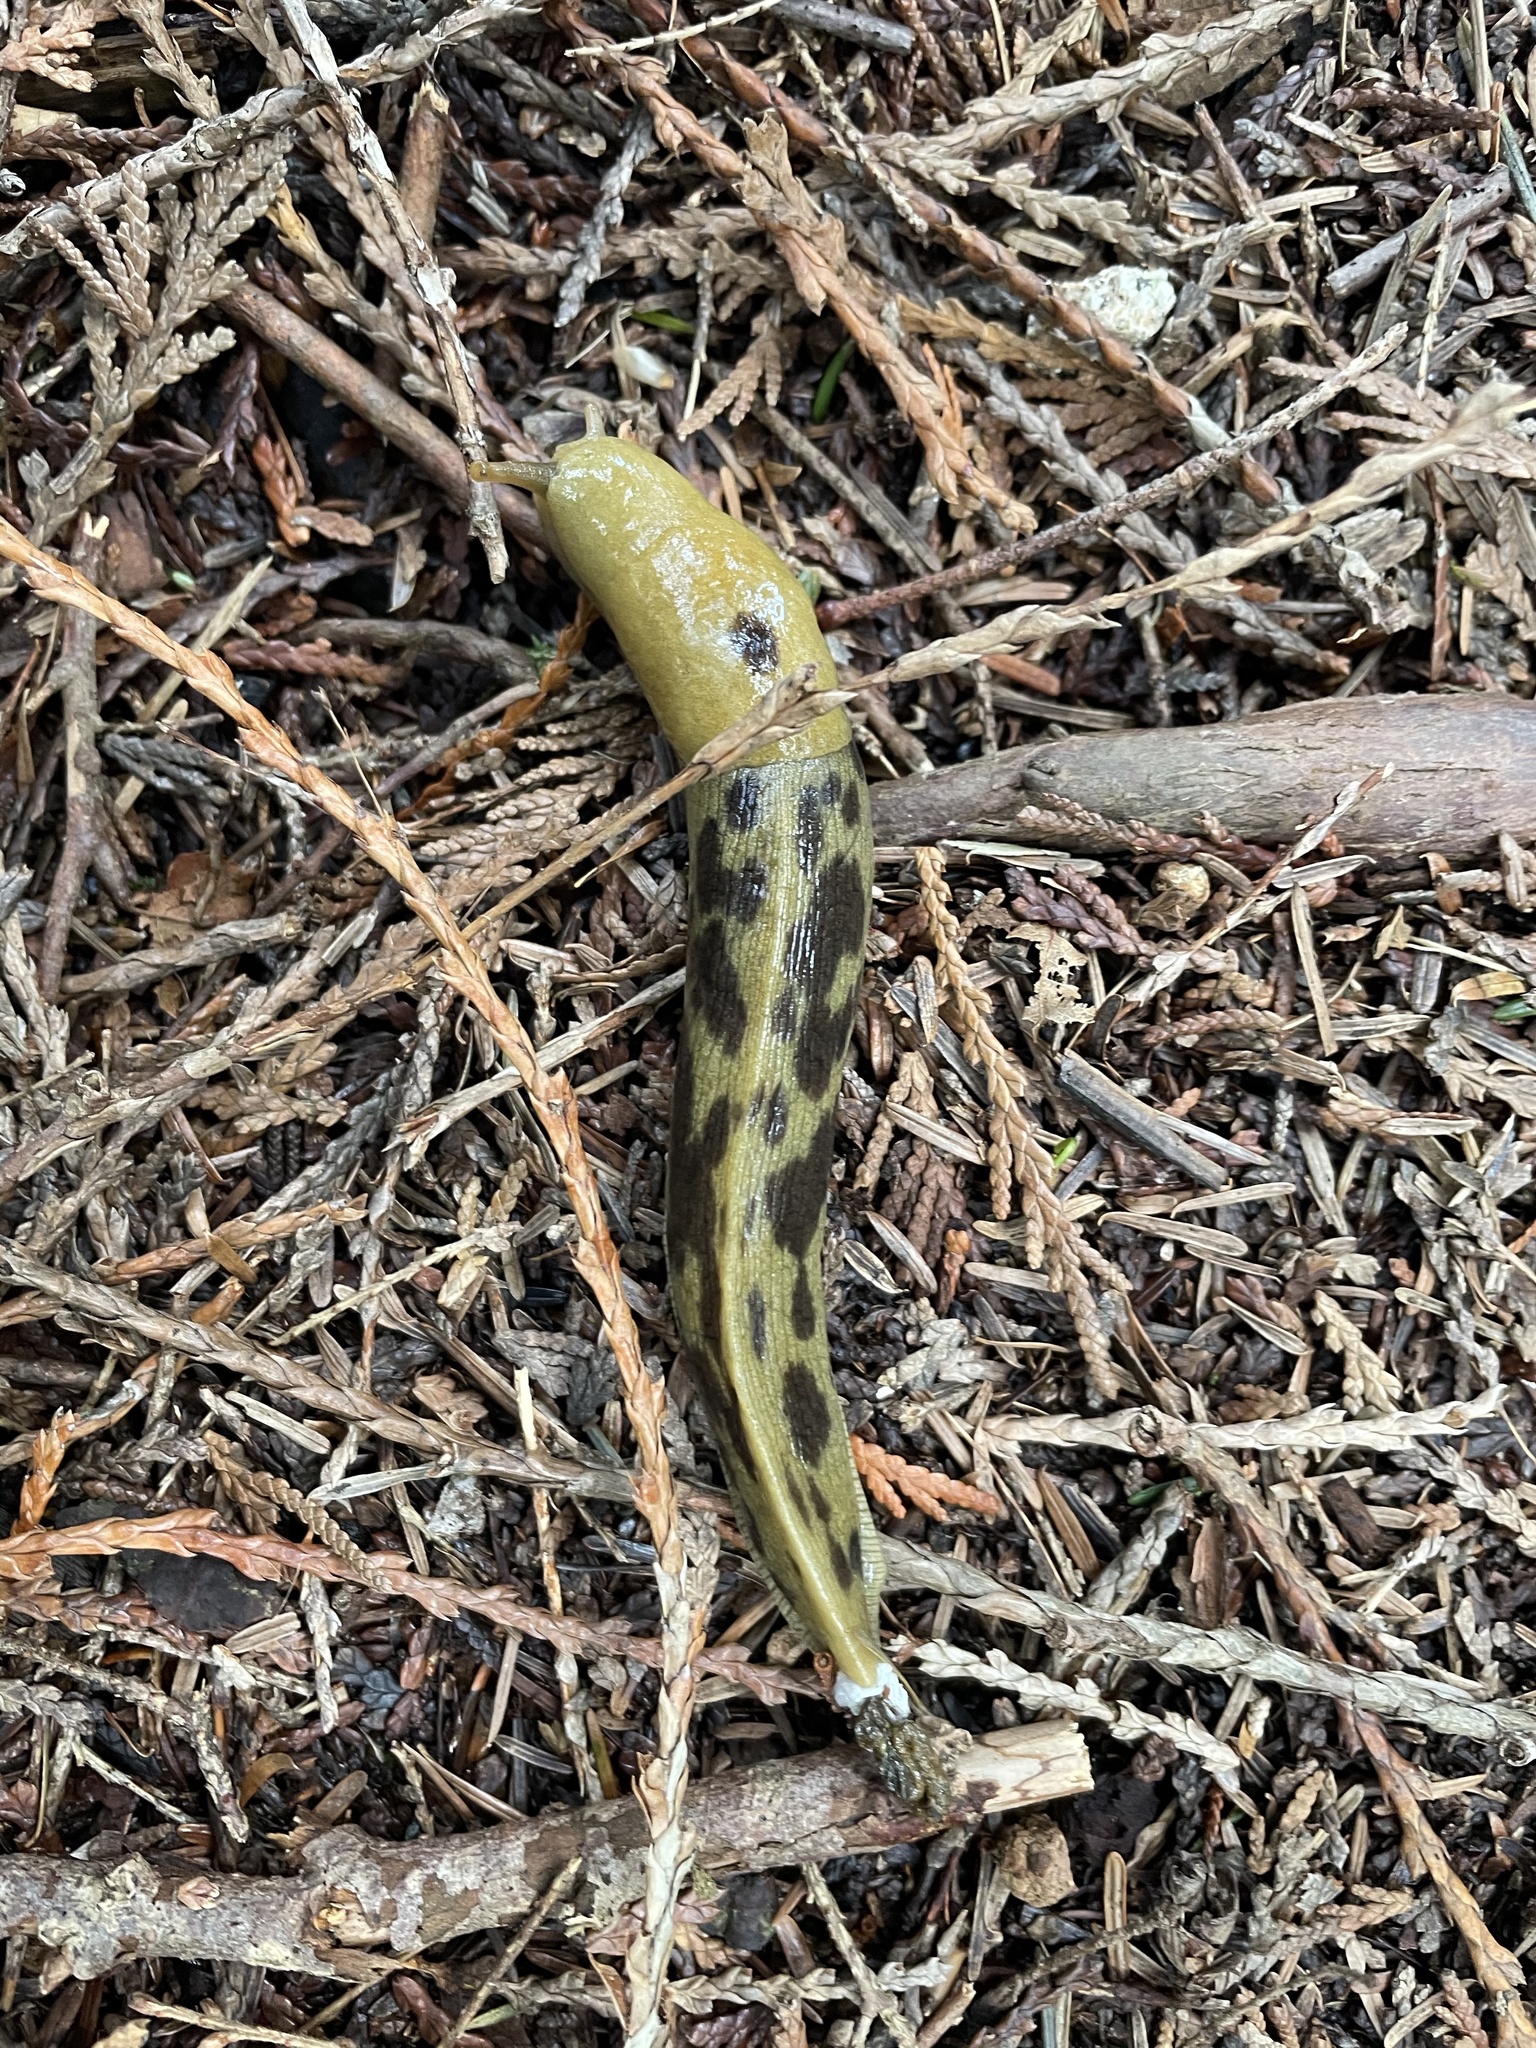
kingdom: Animalia
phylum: Mollusca
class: Gastropoda
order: Stylommatophora
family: Ariolimacidae
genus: Ariolimax
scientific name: Ariolimax columbianus
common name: Pacific banana slug
